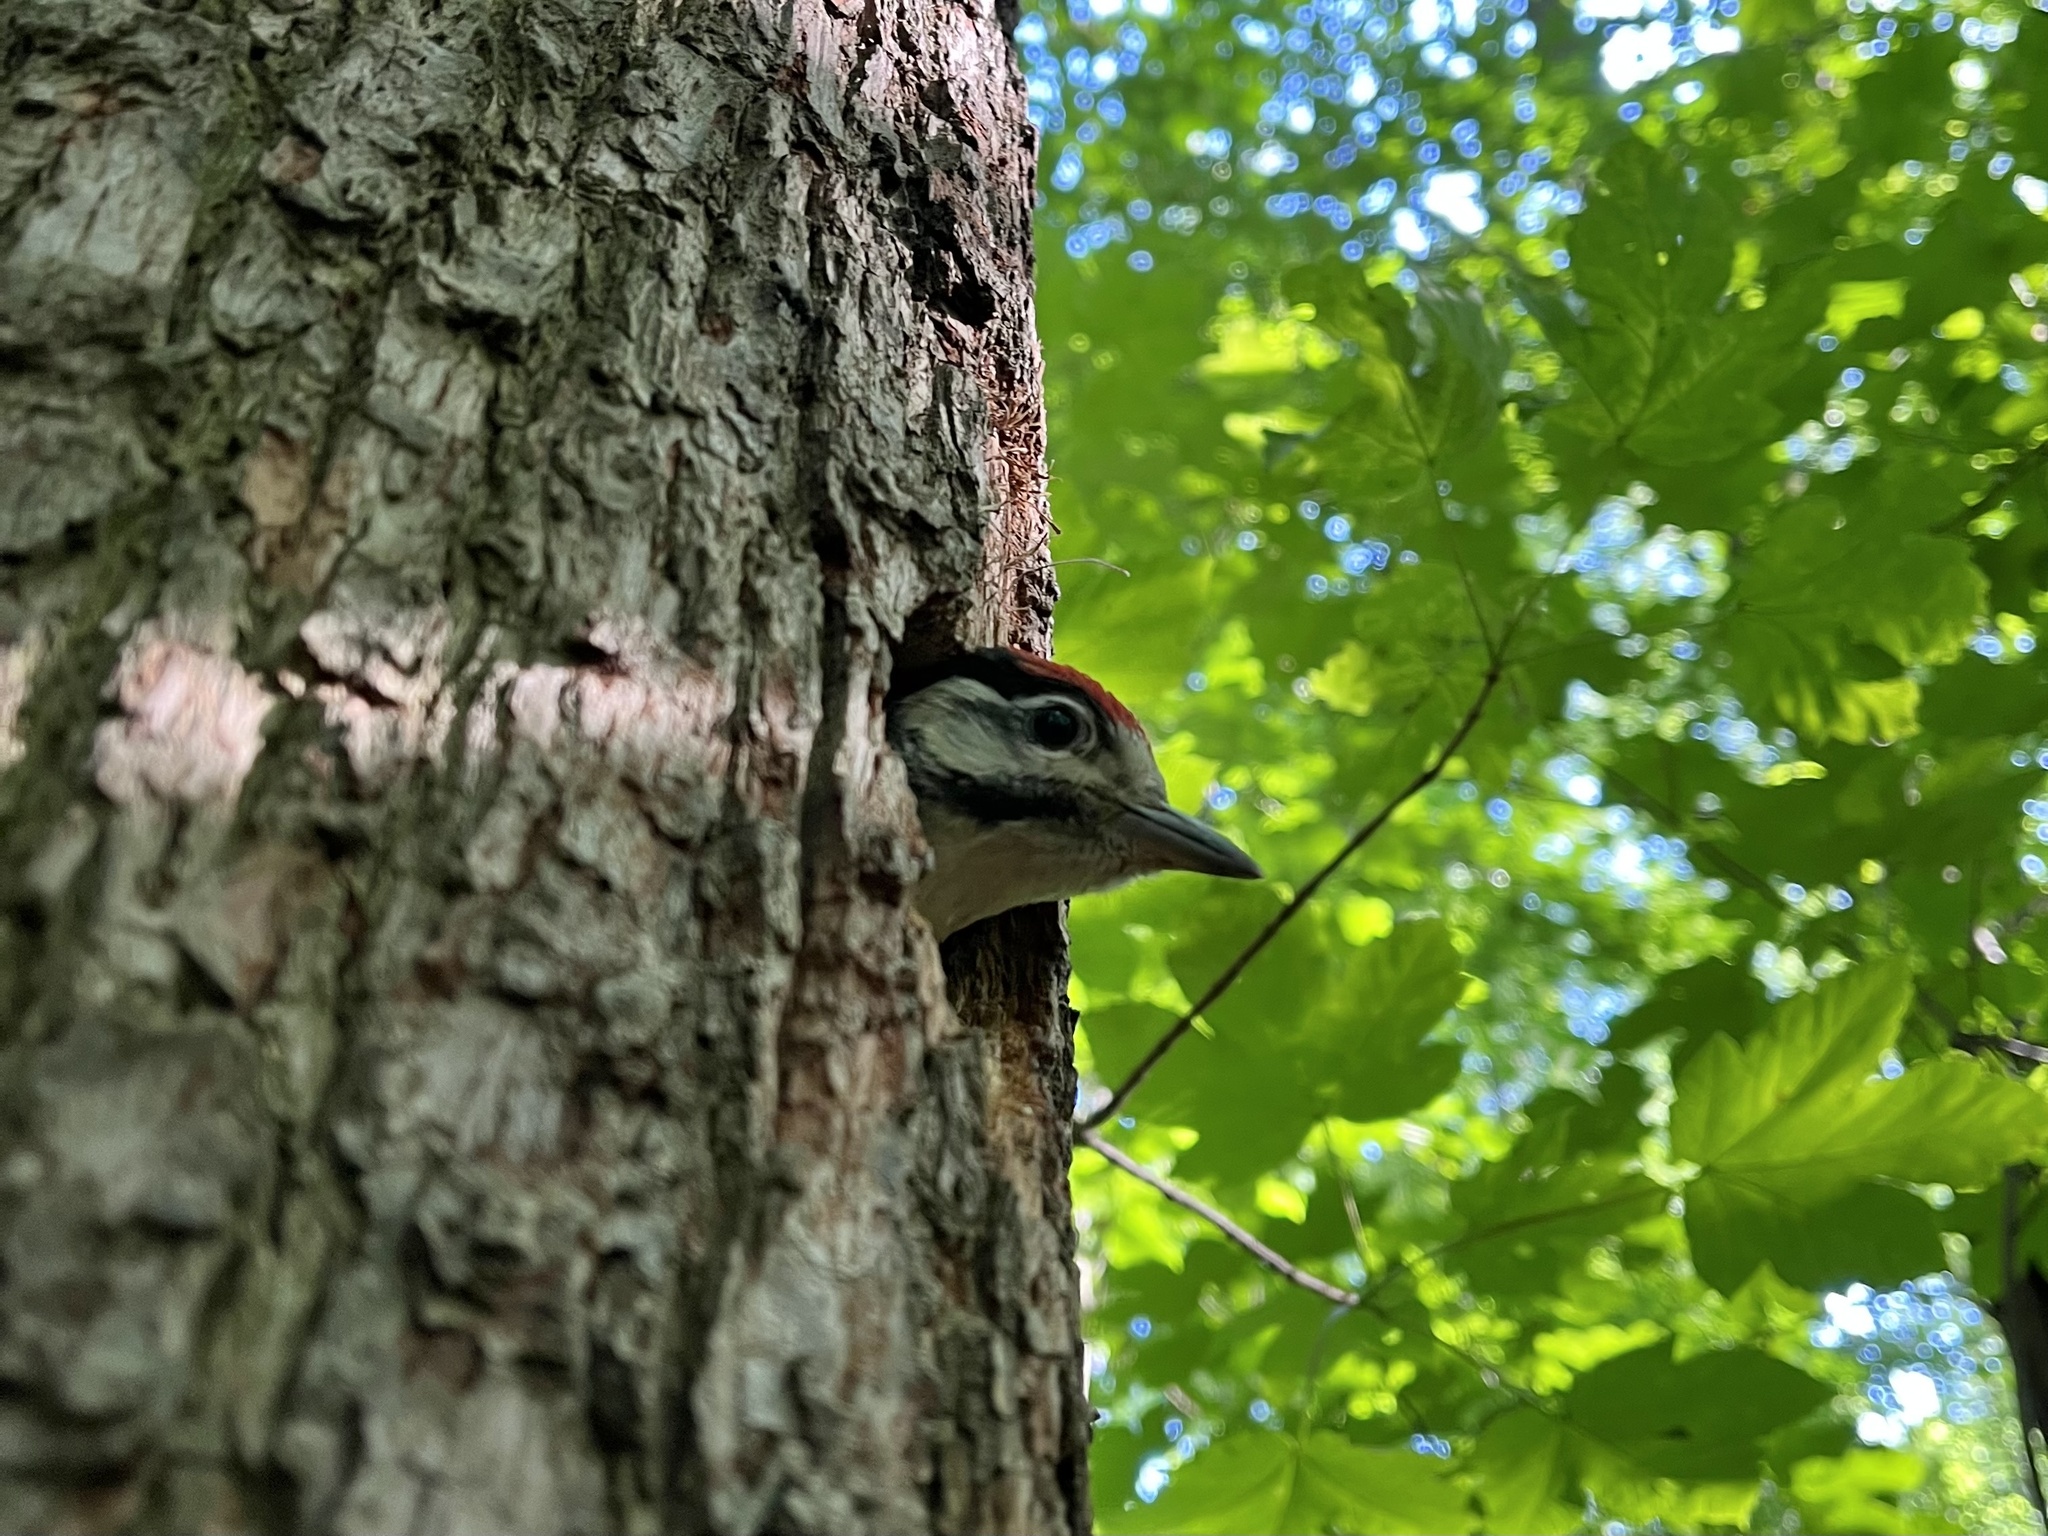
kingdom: Animalia
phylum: Chordata
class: Aves
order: Piciformes
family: Picidae
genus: Dendrocopos
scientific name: Dendrocopos major
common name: Great spotted woodpecker
